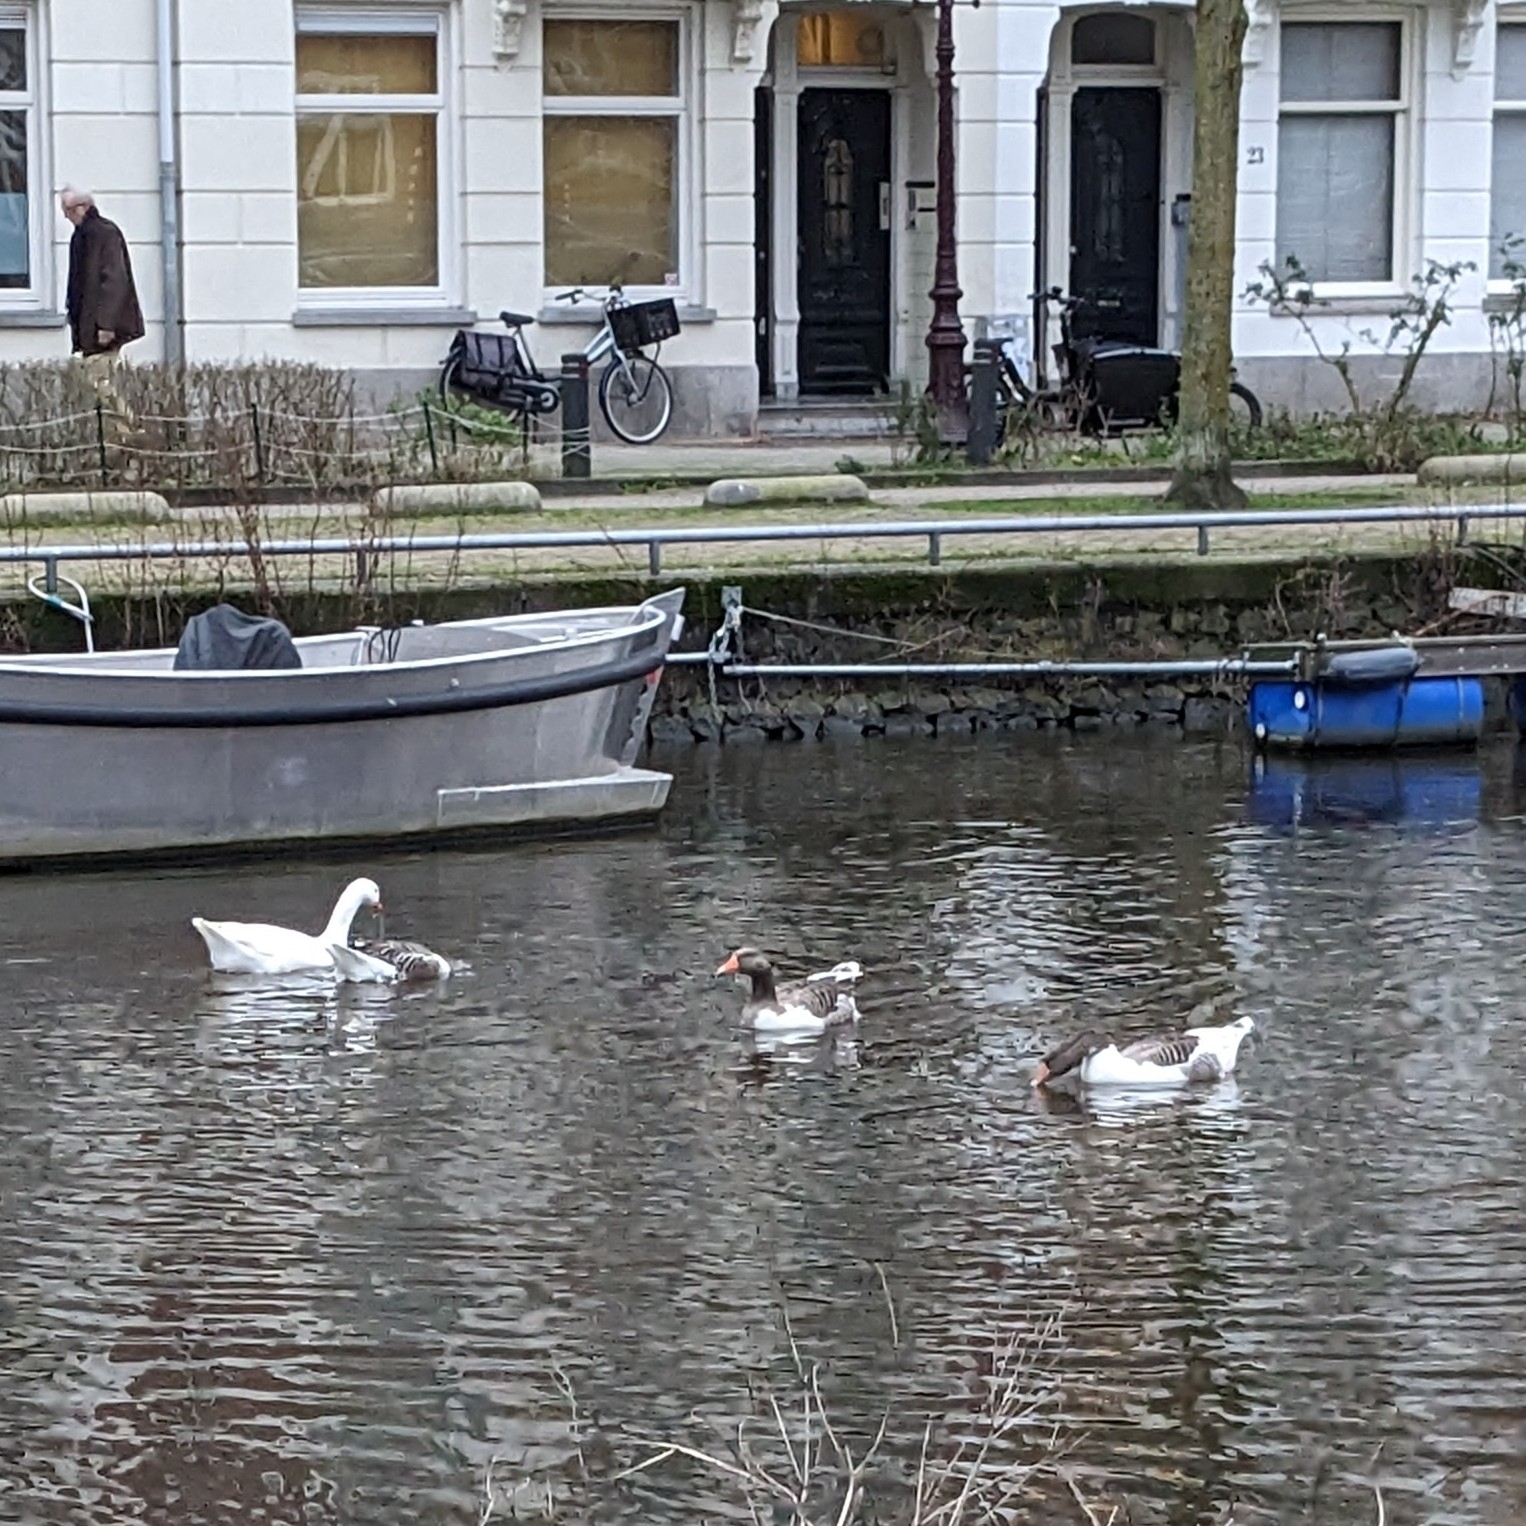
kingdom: Animalia
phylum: Chordata
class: Aves
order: Anseriformes
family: Anatidae
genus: Anser
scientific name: Anser anser
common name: Greylag goose
